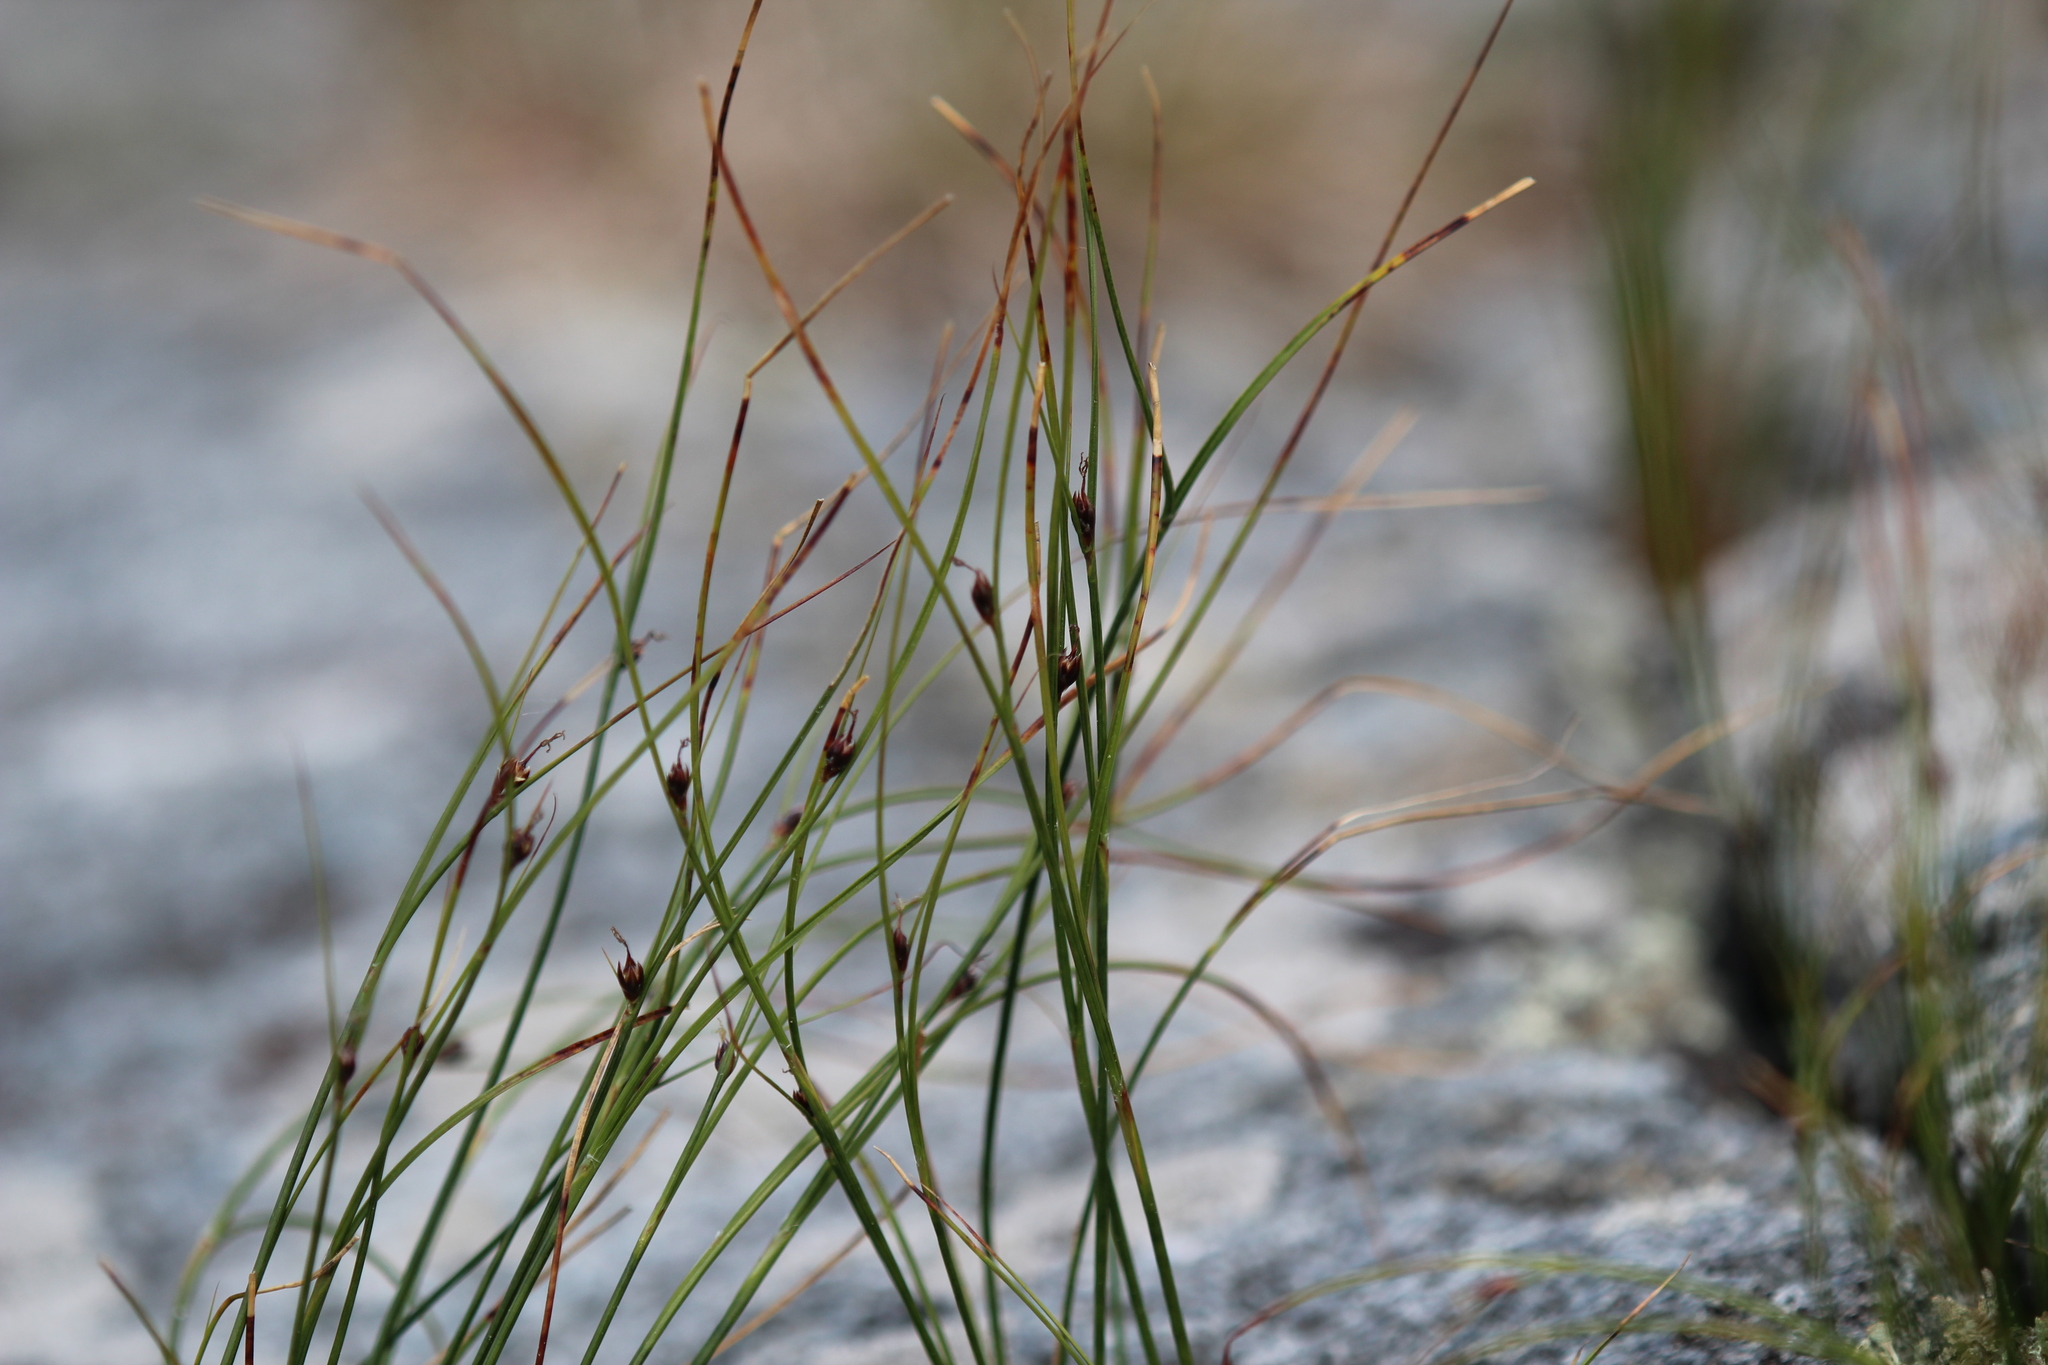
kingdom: Plantae
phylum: Tracheophyta
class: Liliopsida
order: Poales
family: Juncaceae
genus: Oreojuncus
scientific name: Oreojuncus trifidus
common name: Highland rush
